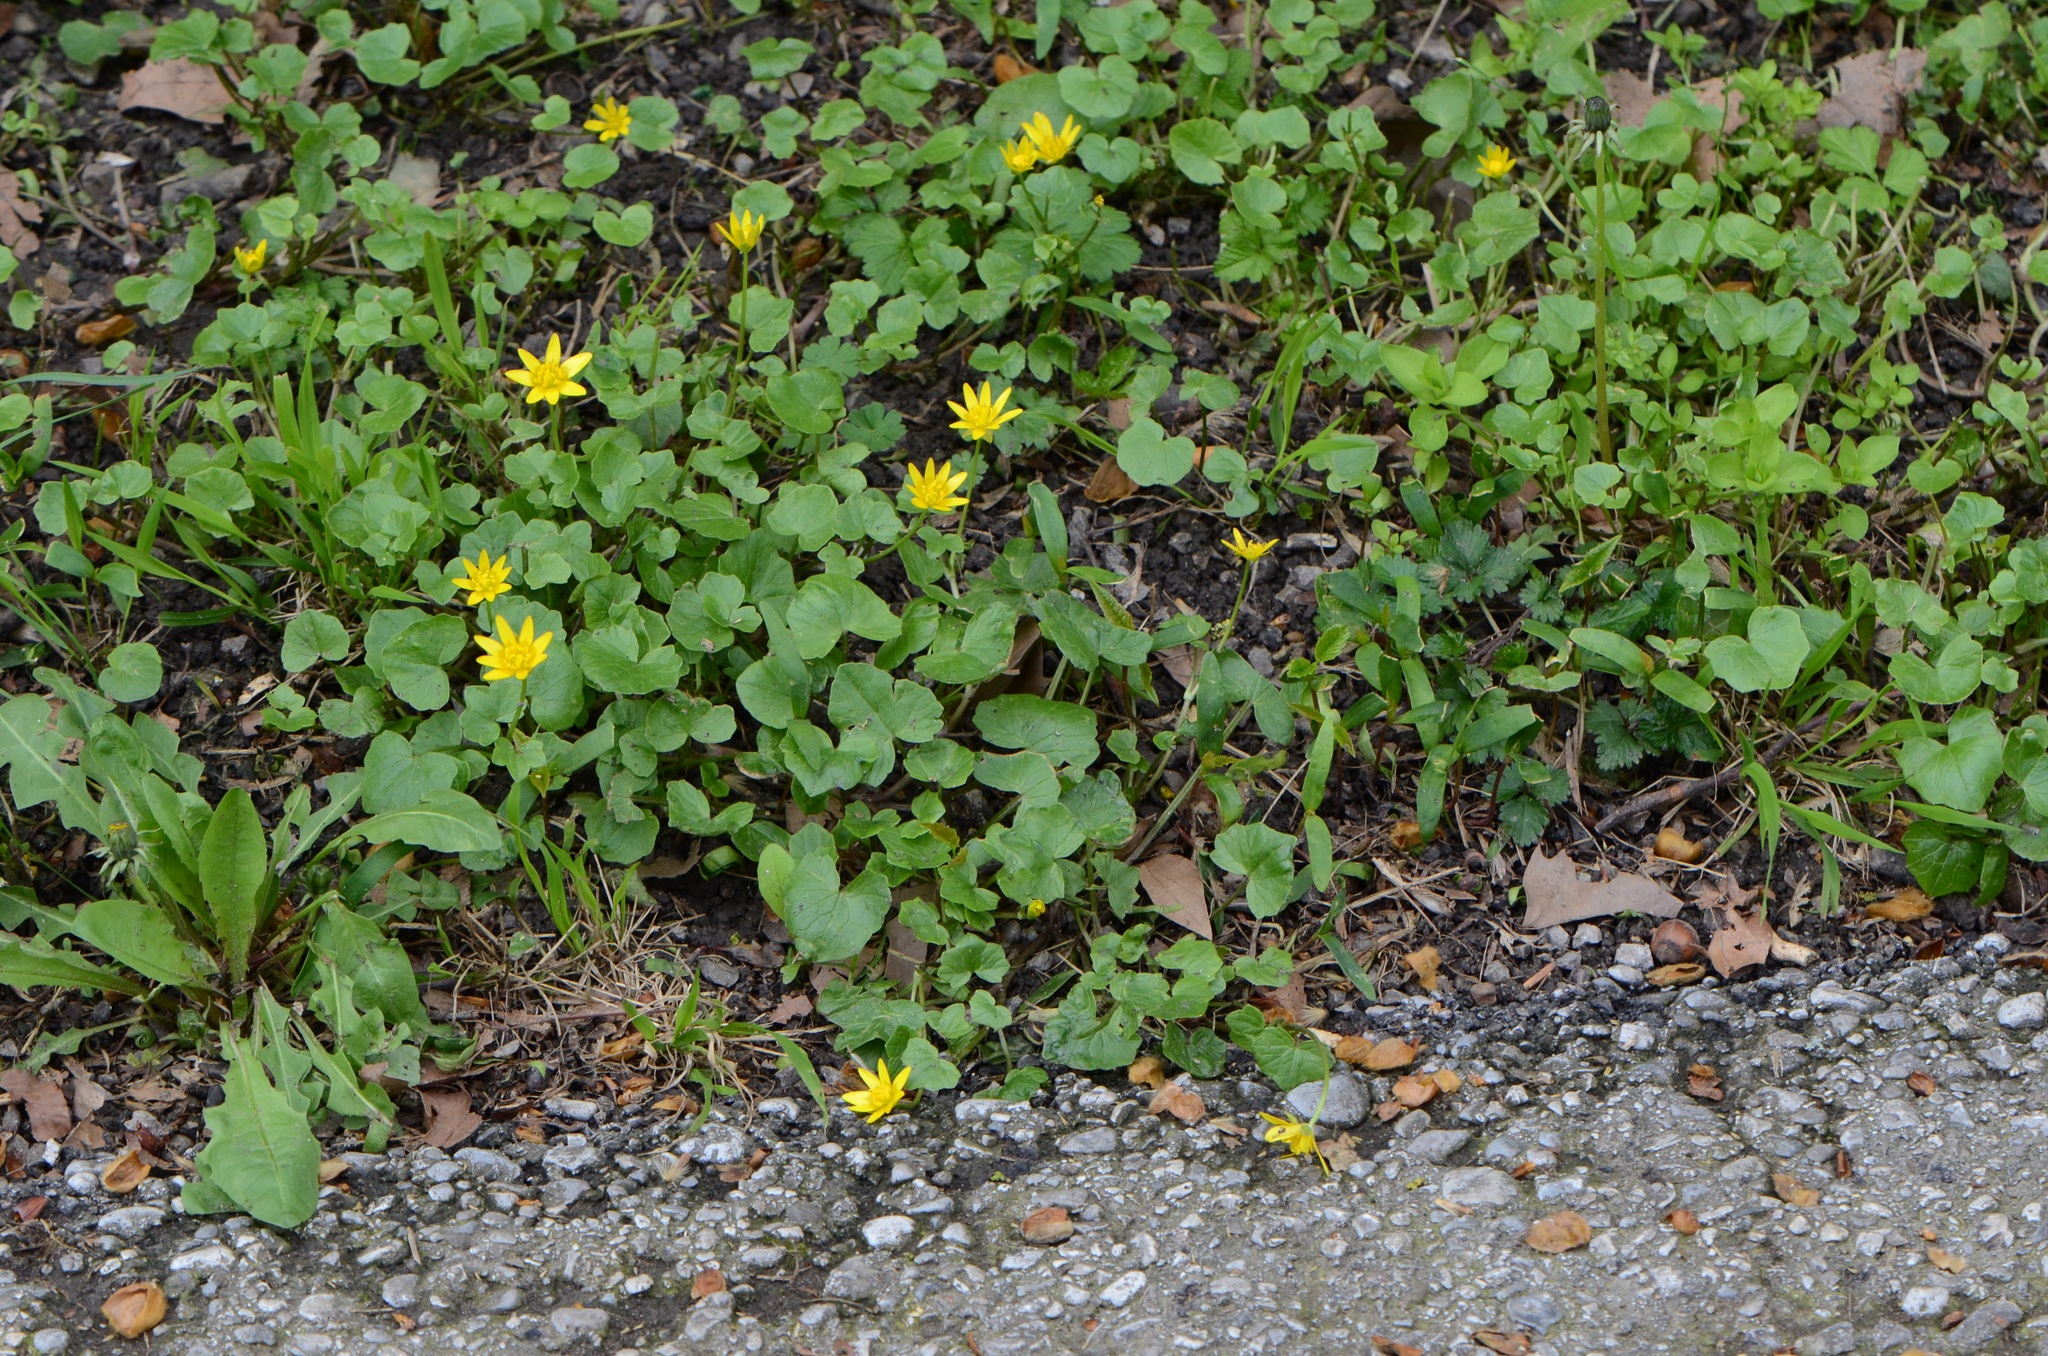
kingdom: Plantae
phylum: Tracheophyta
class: Magnoliopsida
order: Ranunculales
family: Ranunculaceae
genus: Ficaria
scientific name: Ficaria verna
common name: Lesser celandine
